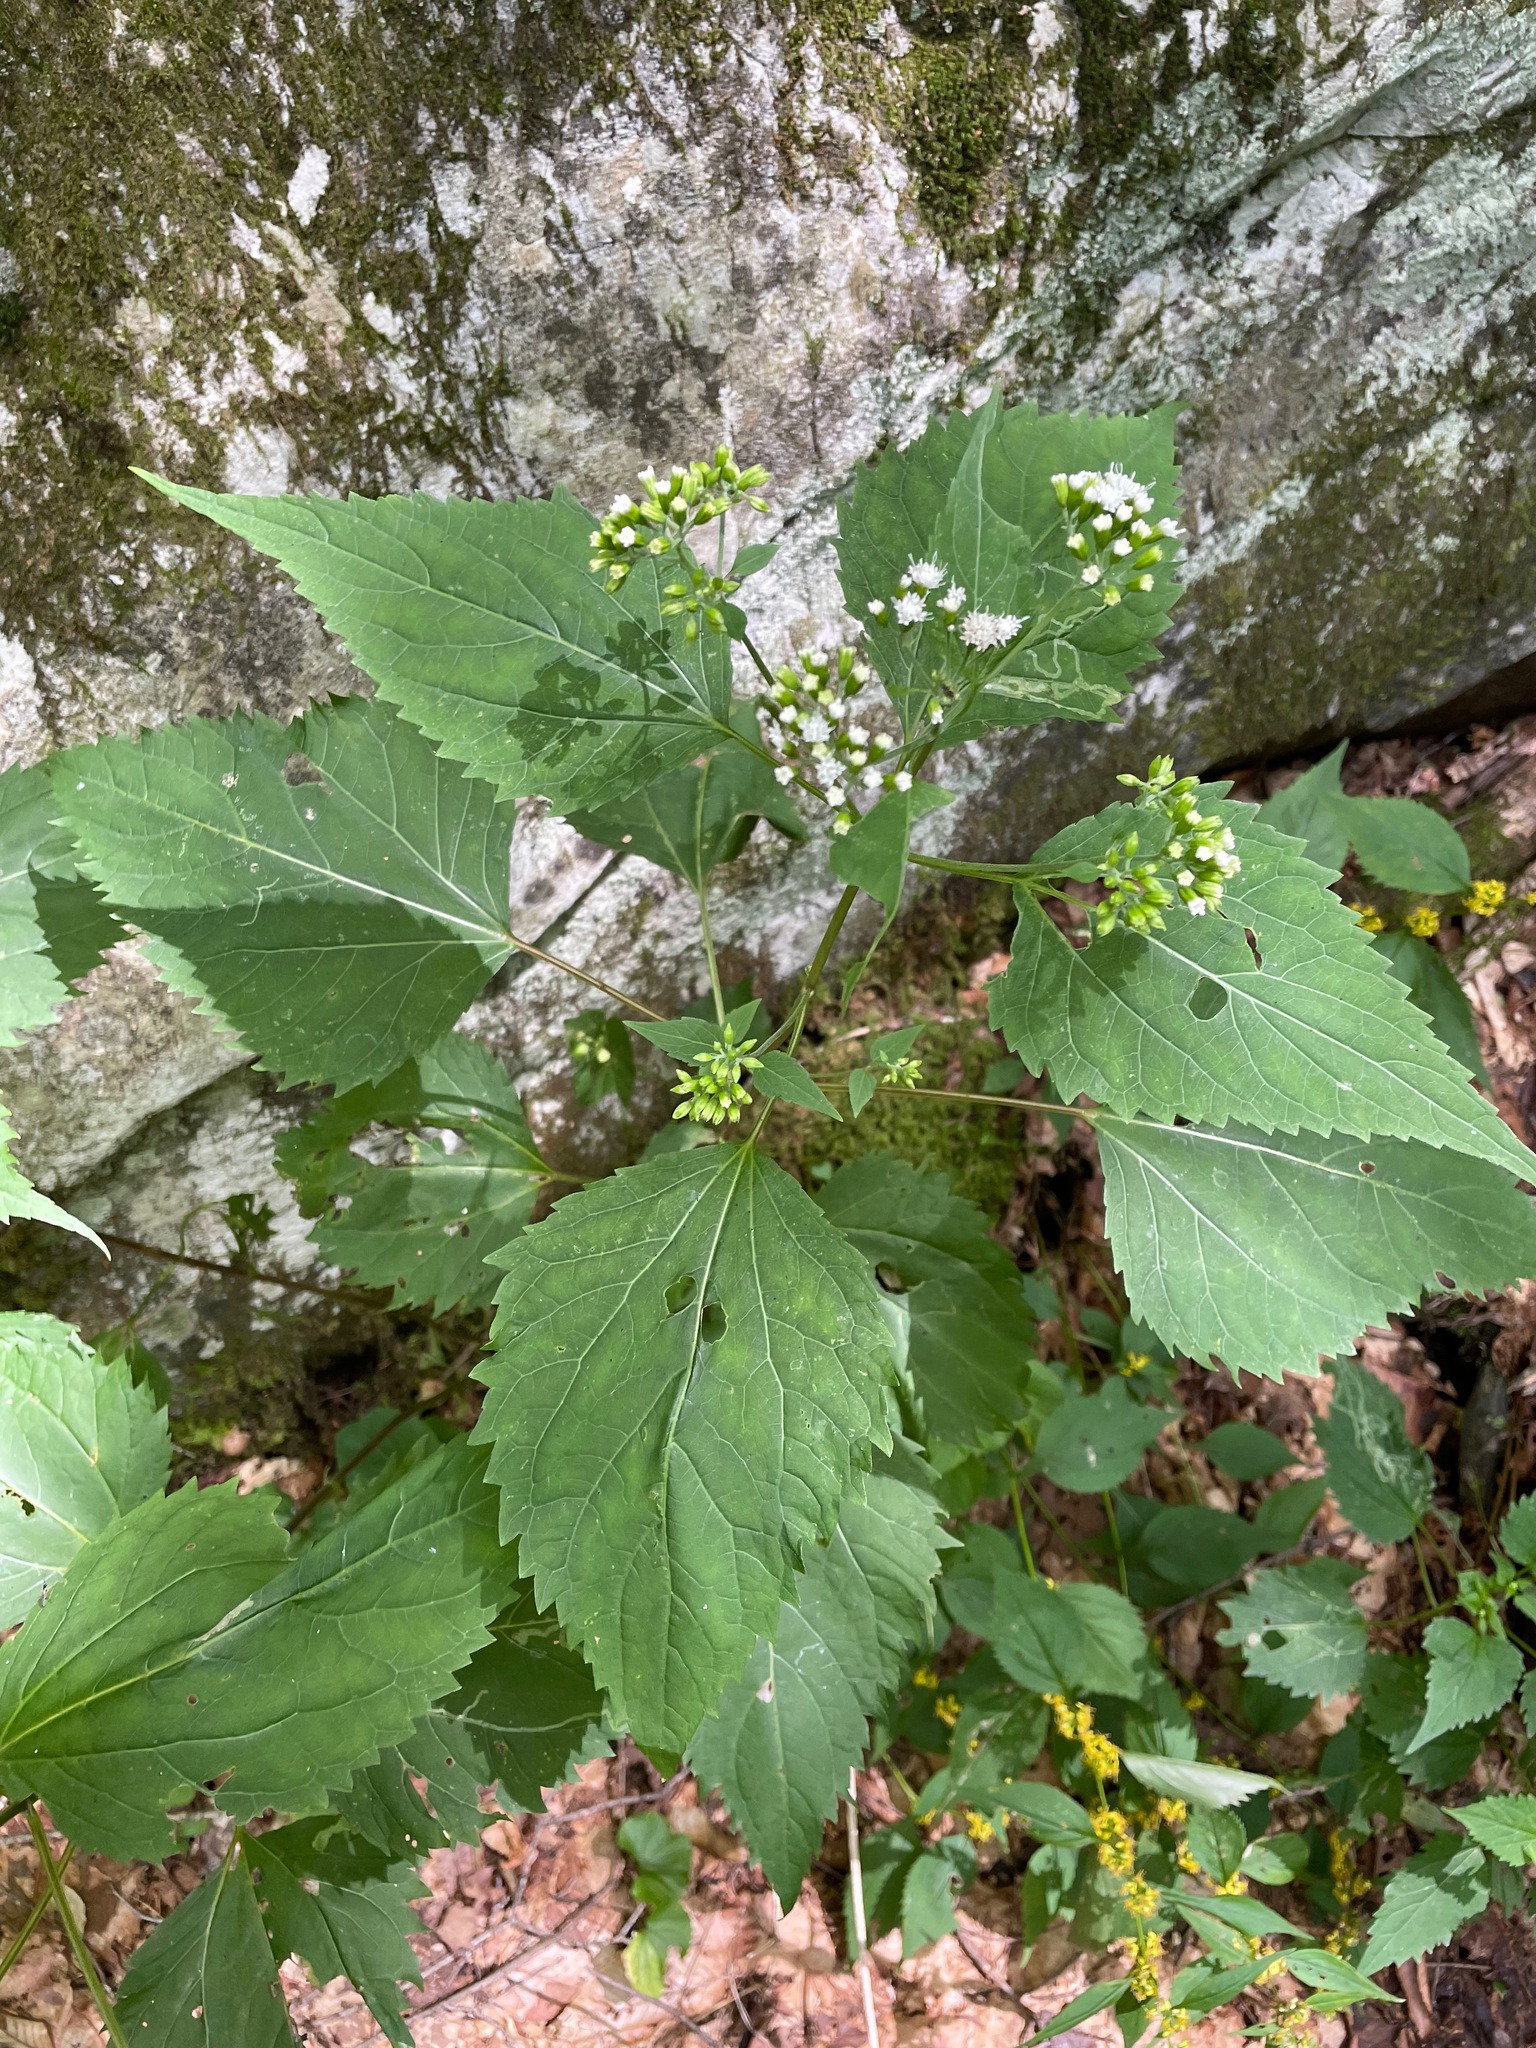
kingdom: Plantae
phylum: Tracheophyta
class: Magnoliopsida
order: Asterales
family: Asteraceae
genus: Ageratina
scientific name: Ageratina altissima
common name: White snakeroot
